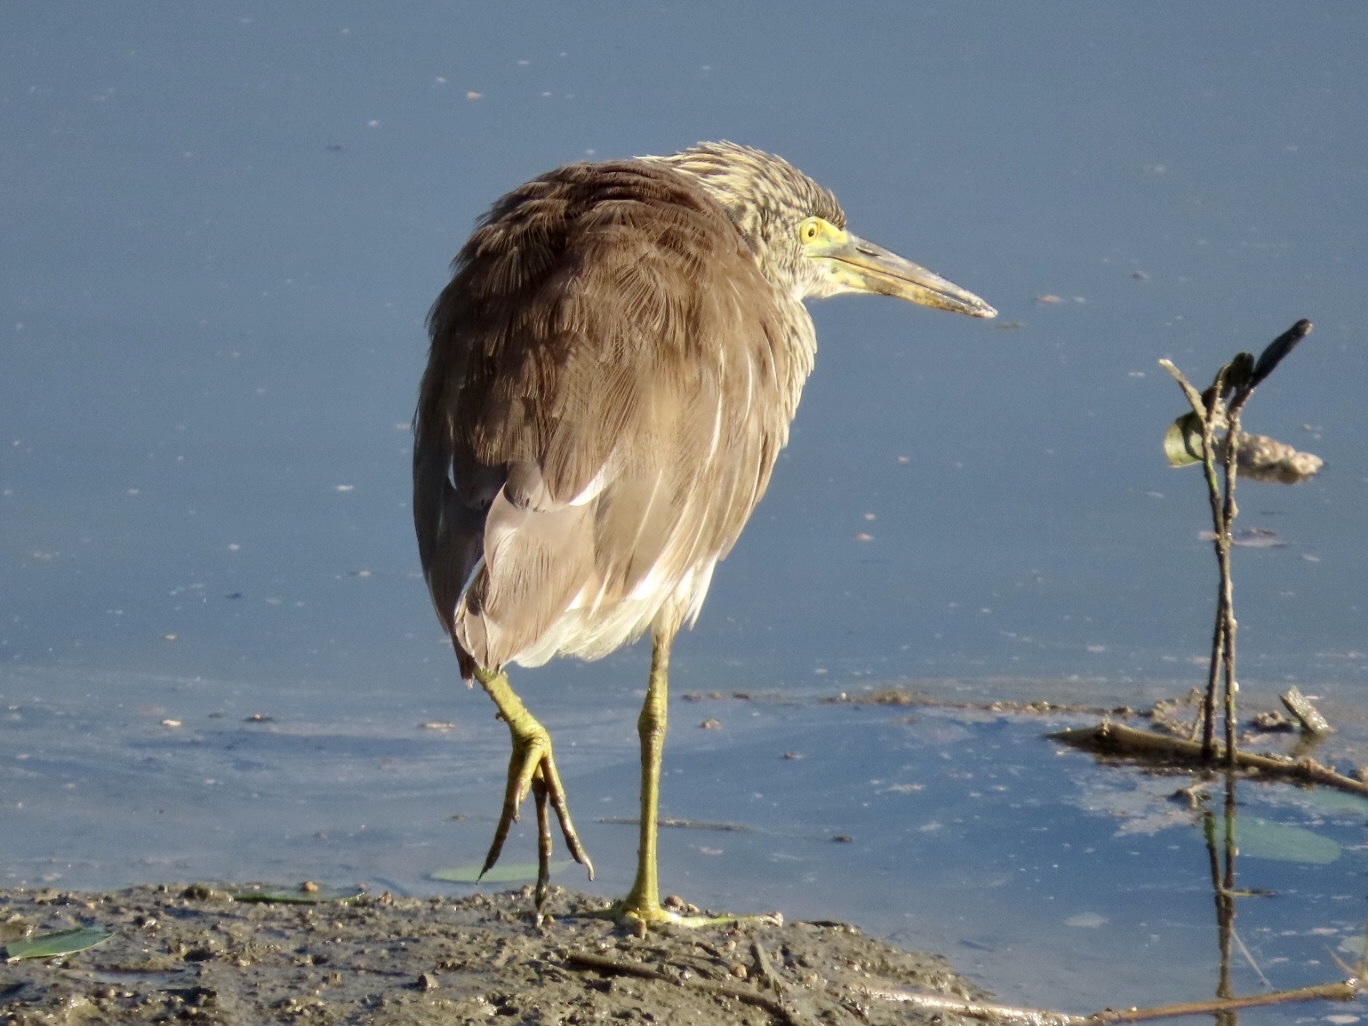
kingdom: Animalia
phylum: Chordata
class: Aves
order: Pelecaniformes
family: Ardeidae
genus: Ardeola
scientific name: Ardeola bacchus
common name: Chinese pond heron
